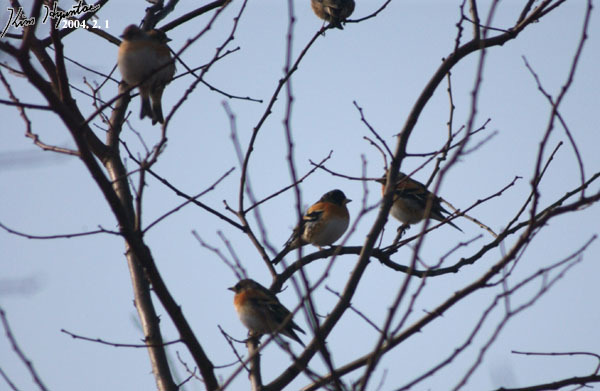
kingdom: Animalia
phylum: Chordata
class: Aves
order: Passeriformes
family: Fringillidae
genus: Fringilla
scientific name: Fringilla montifringilla
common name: Brambling
